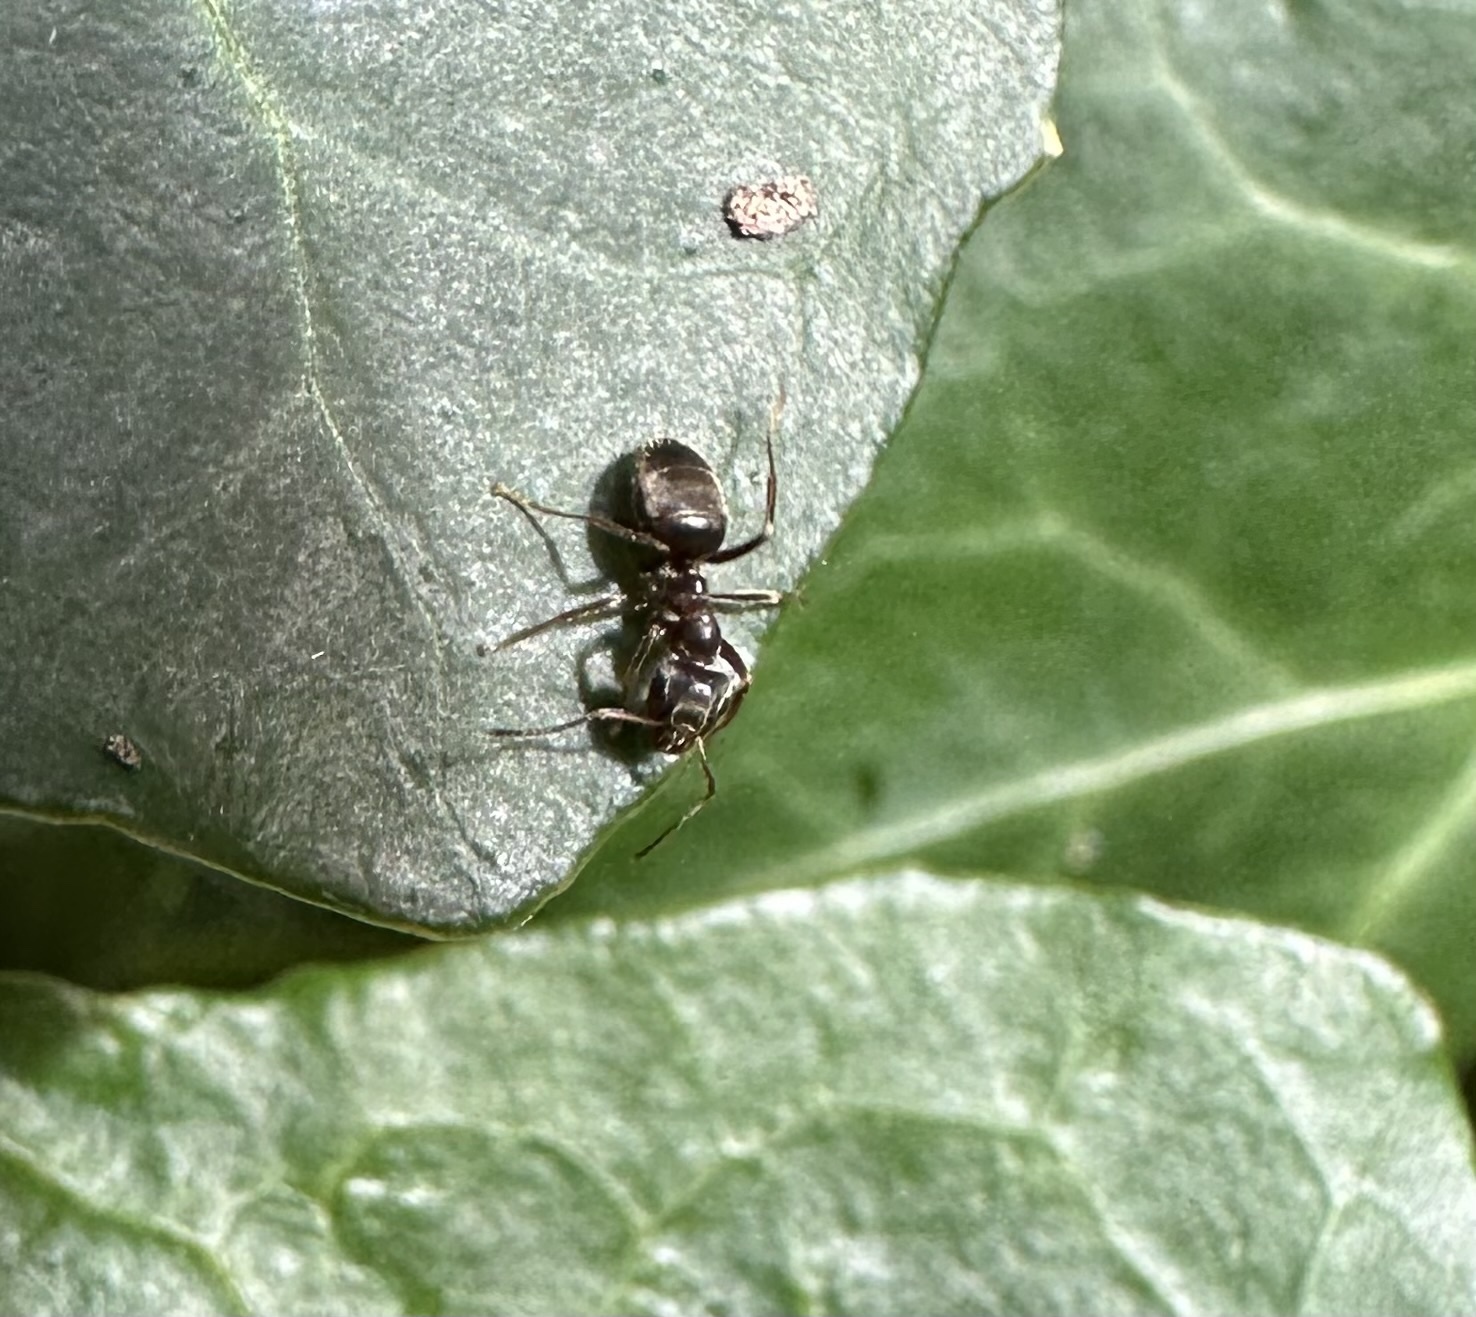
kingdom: Animalia
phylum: Arthropoda
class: Insecta
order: Hymenoptera
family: Formicidae
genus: Lasius
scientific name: Lasius niger
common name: Small black ant
